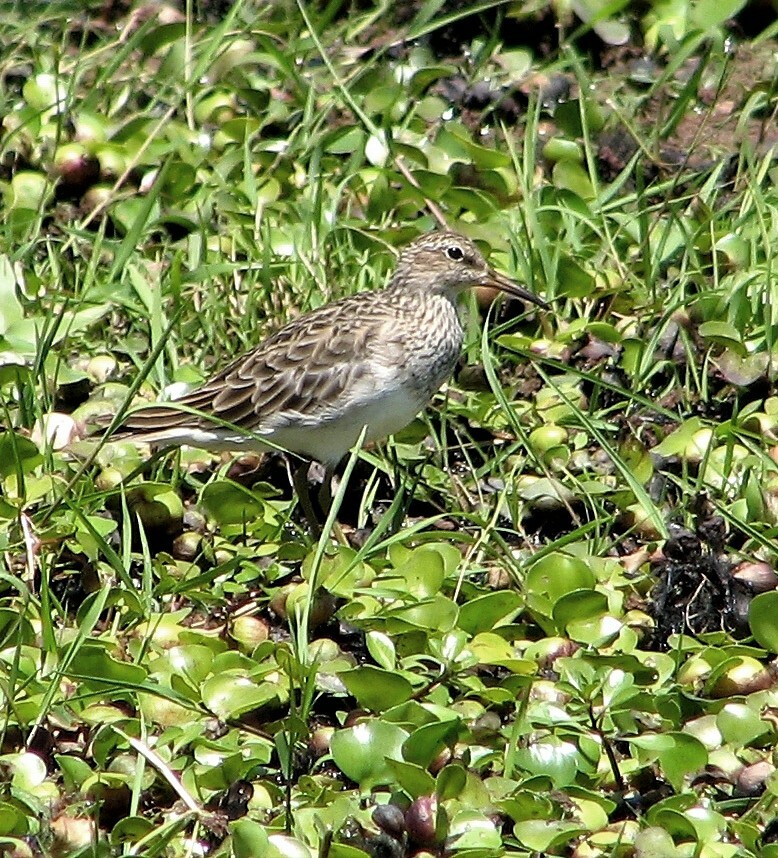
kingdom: Animalia
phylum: Chordata
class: Aves
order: Charadriiformes
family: Scolopacidae
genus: Calidris
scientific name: Calidris melanotos
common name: Pectoral sandpiper
